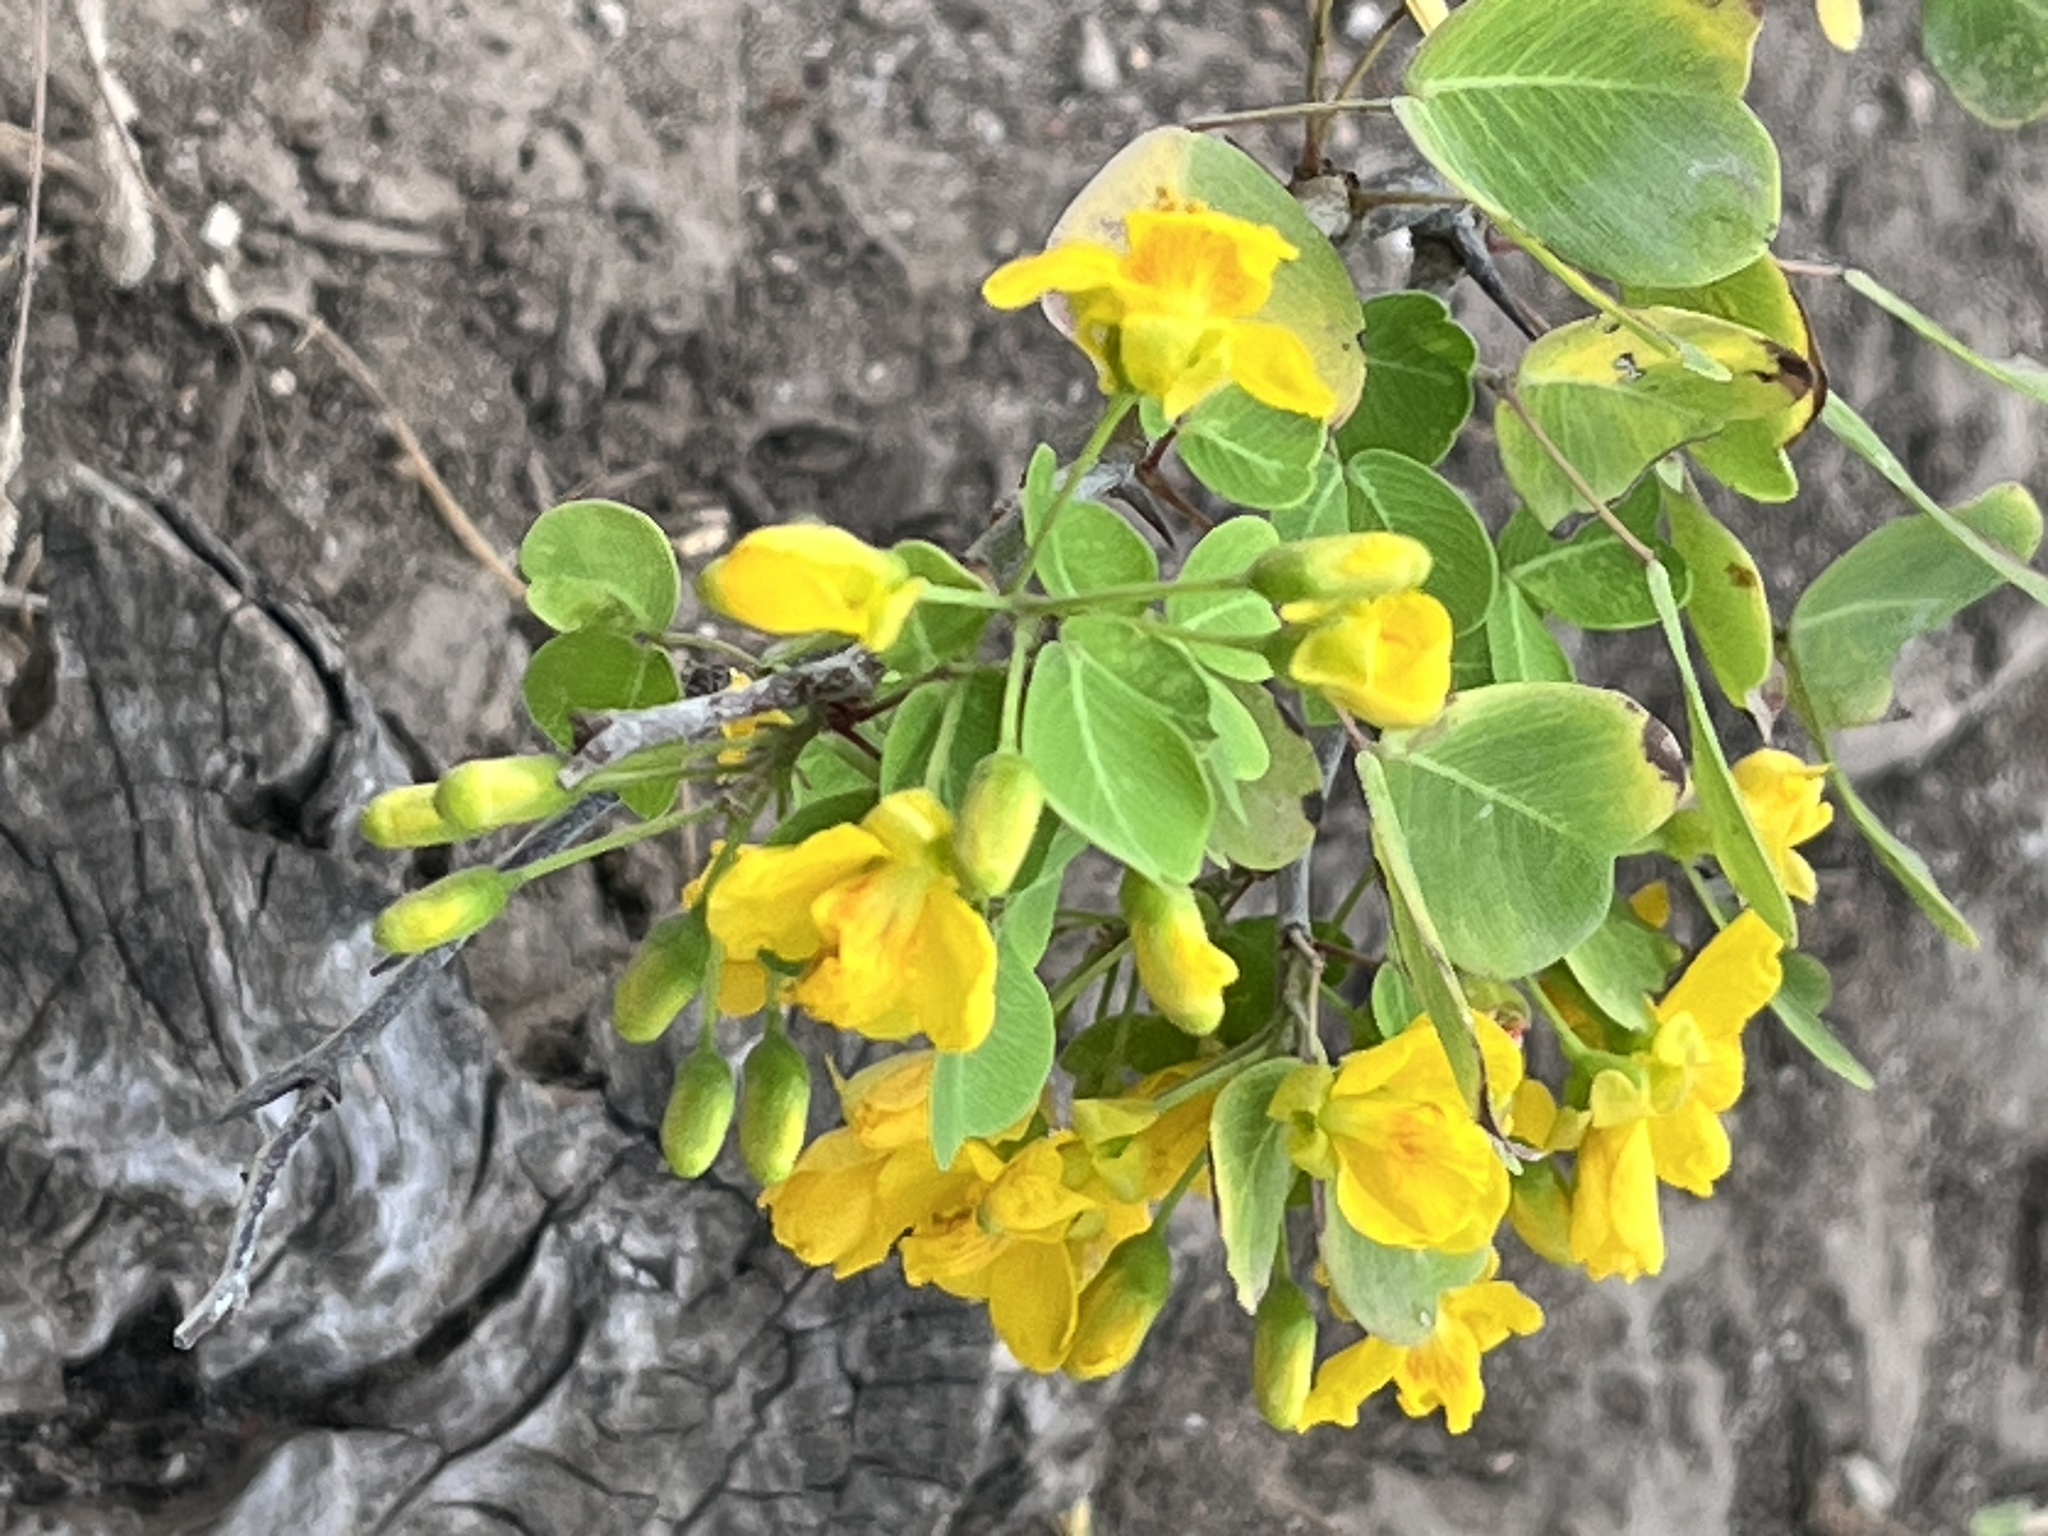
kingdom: Plantae
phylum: Tracheophyta
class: Magnoliopsida
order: Fabales
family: Fabaceae
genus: Haematoxylum
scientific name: Haematoxylum brasiletto
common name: Peachwood
